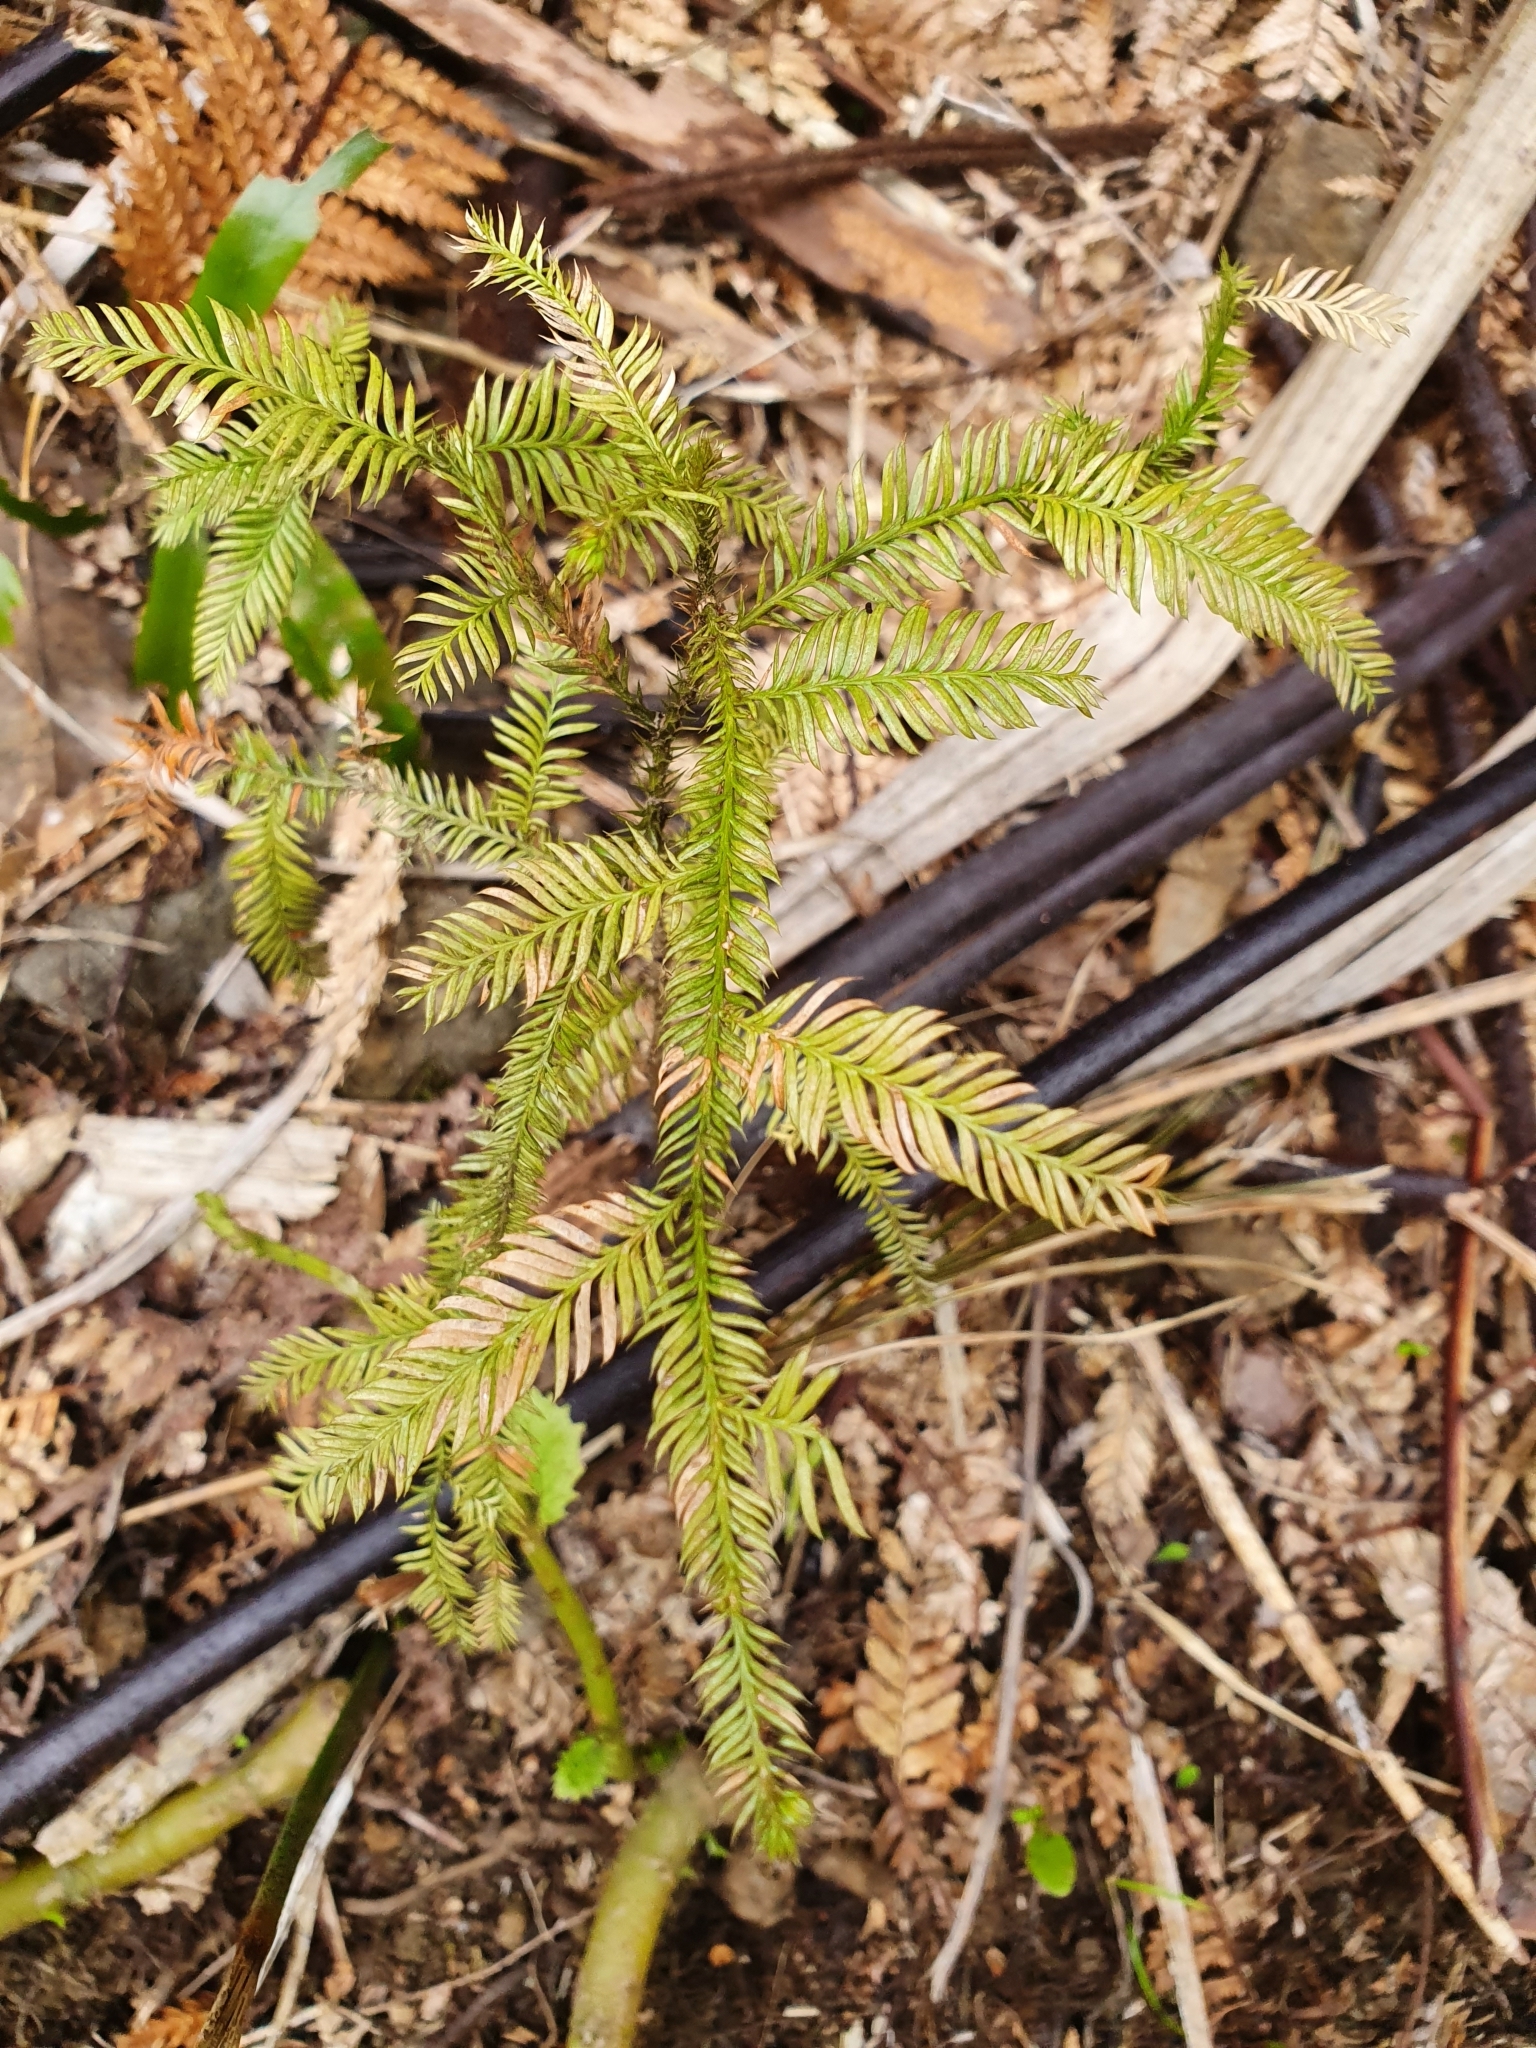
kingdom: Plantae
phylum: Tracheophyta
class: Pinopsida
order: Pinales
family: Podocarpaceae
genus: Dacrycarpus
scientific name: Dacrycarpus dacrydioides
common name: White pine
